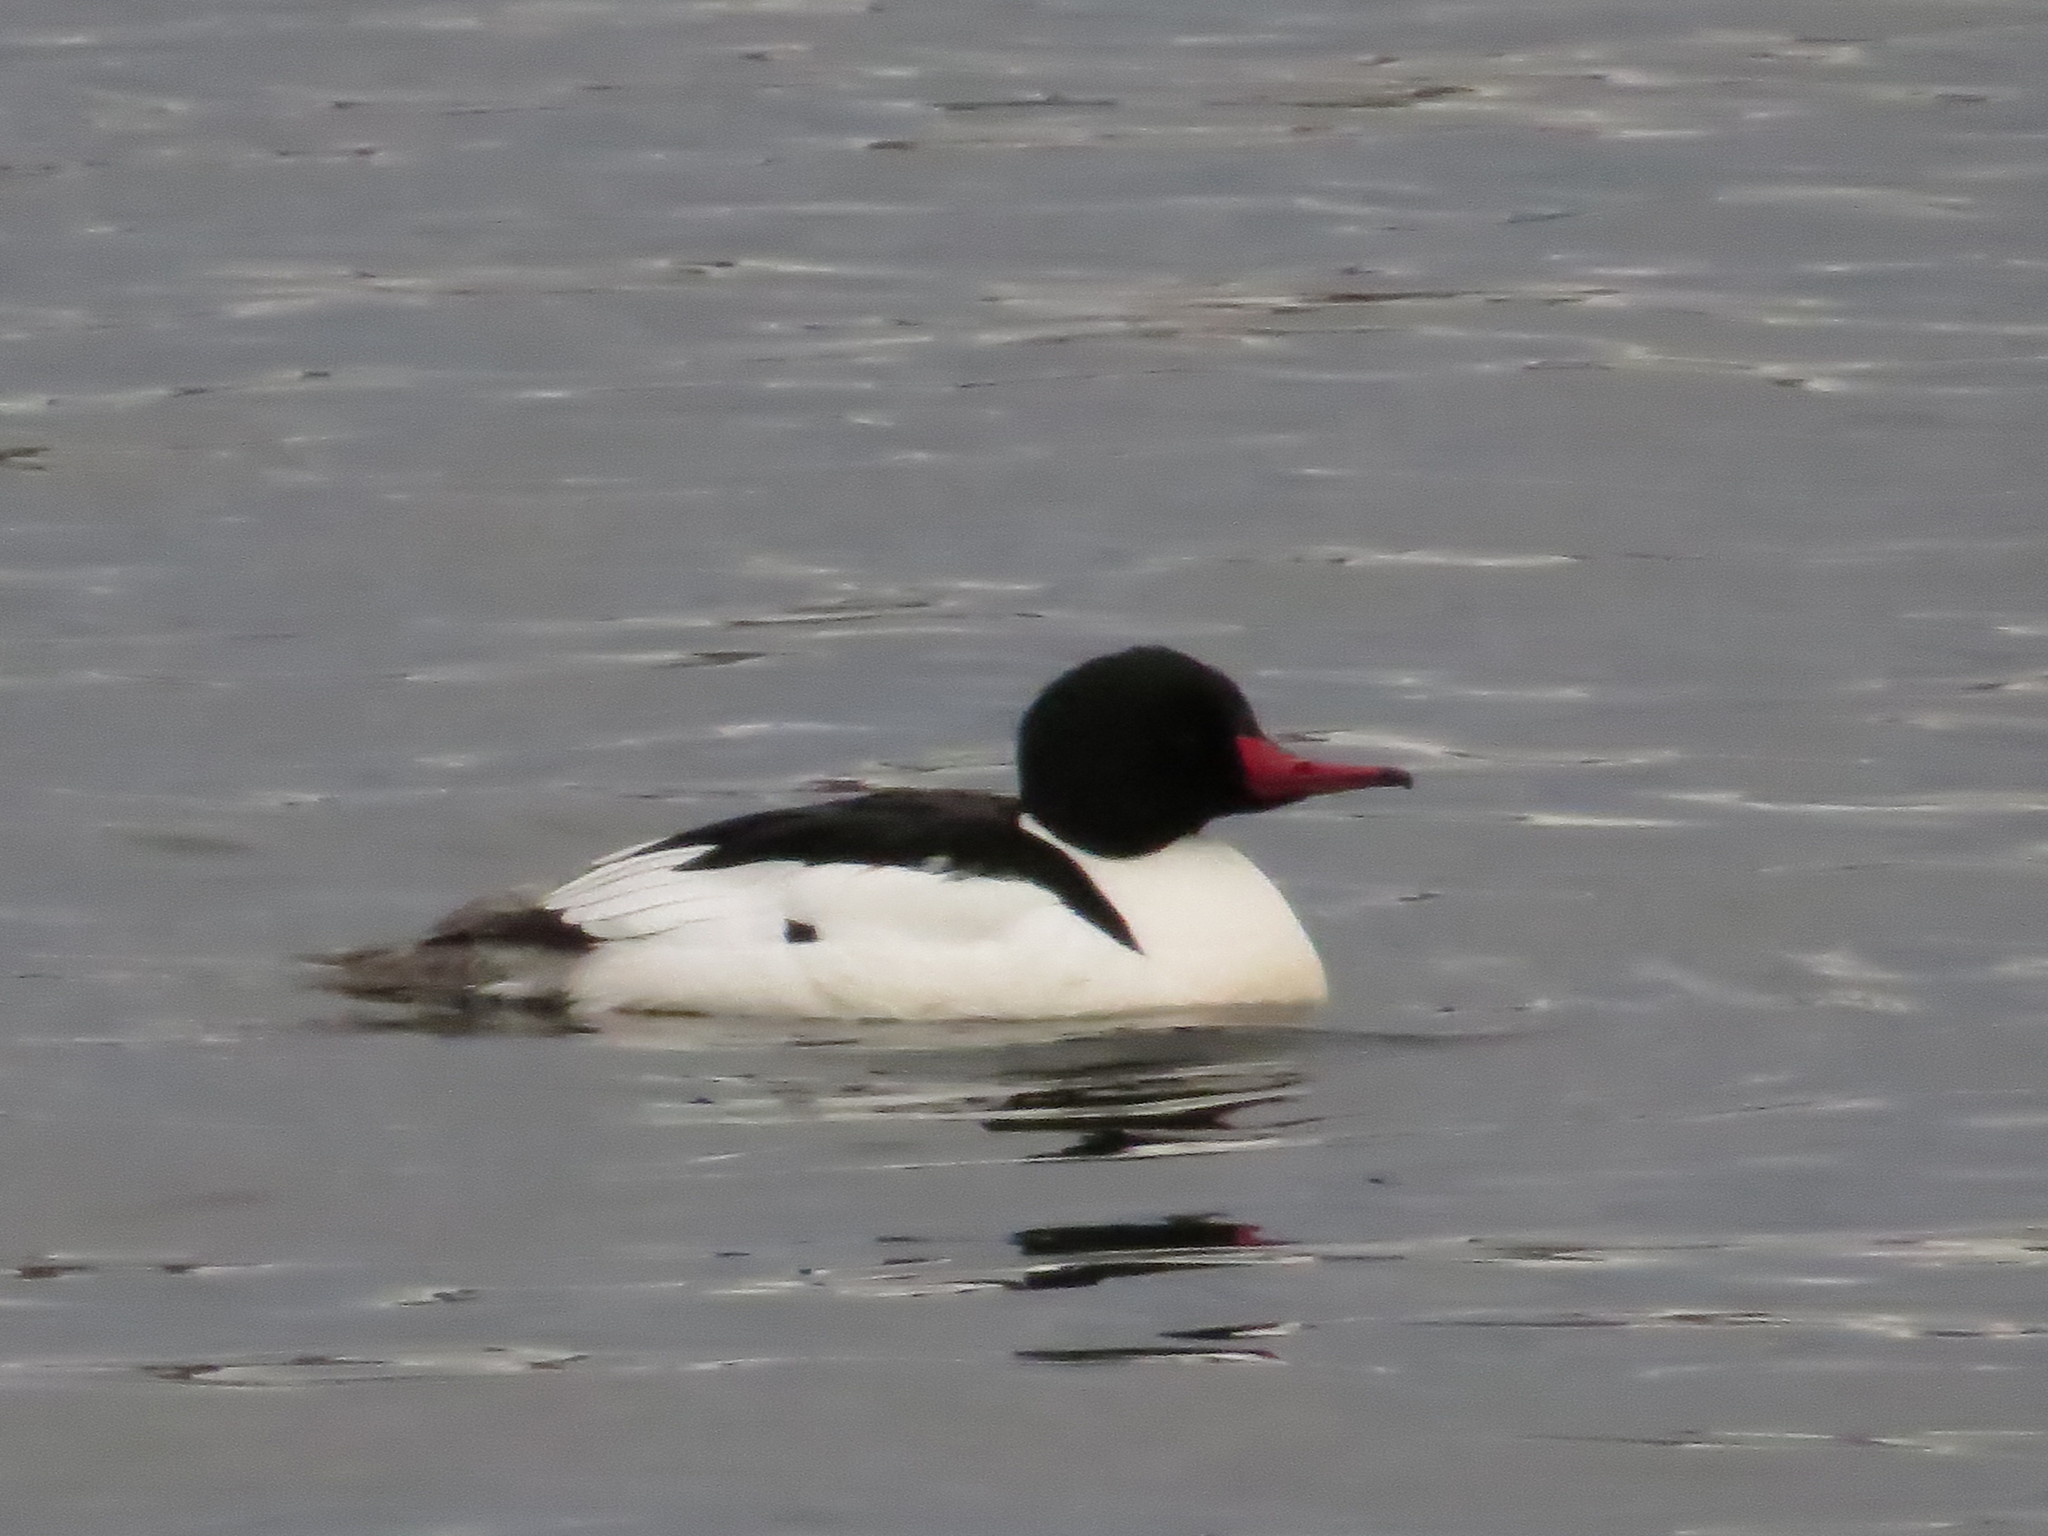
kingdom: Animalia
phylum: Chordata
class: Aves
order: Anseriformes
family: Anatidae
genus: Mergus
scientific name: Mergus merganser
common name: Common merganser
